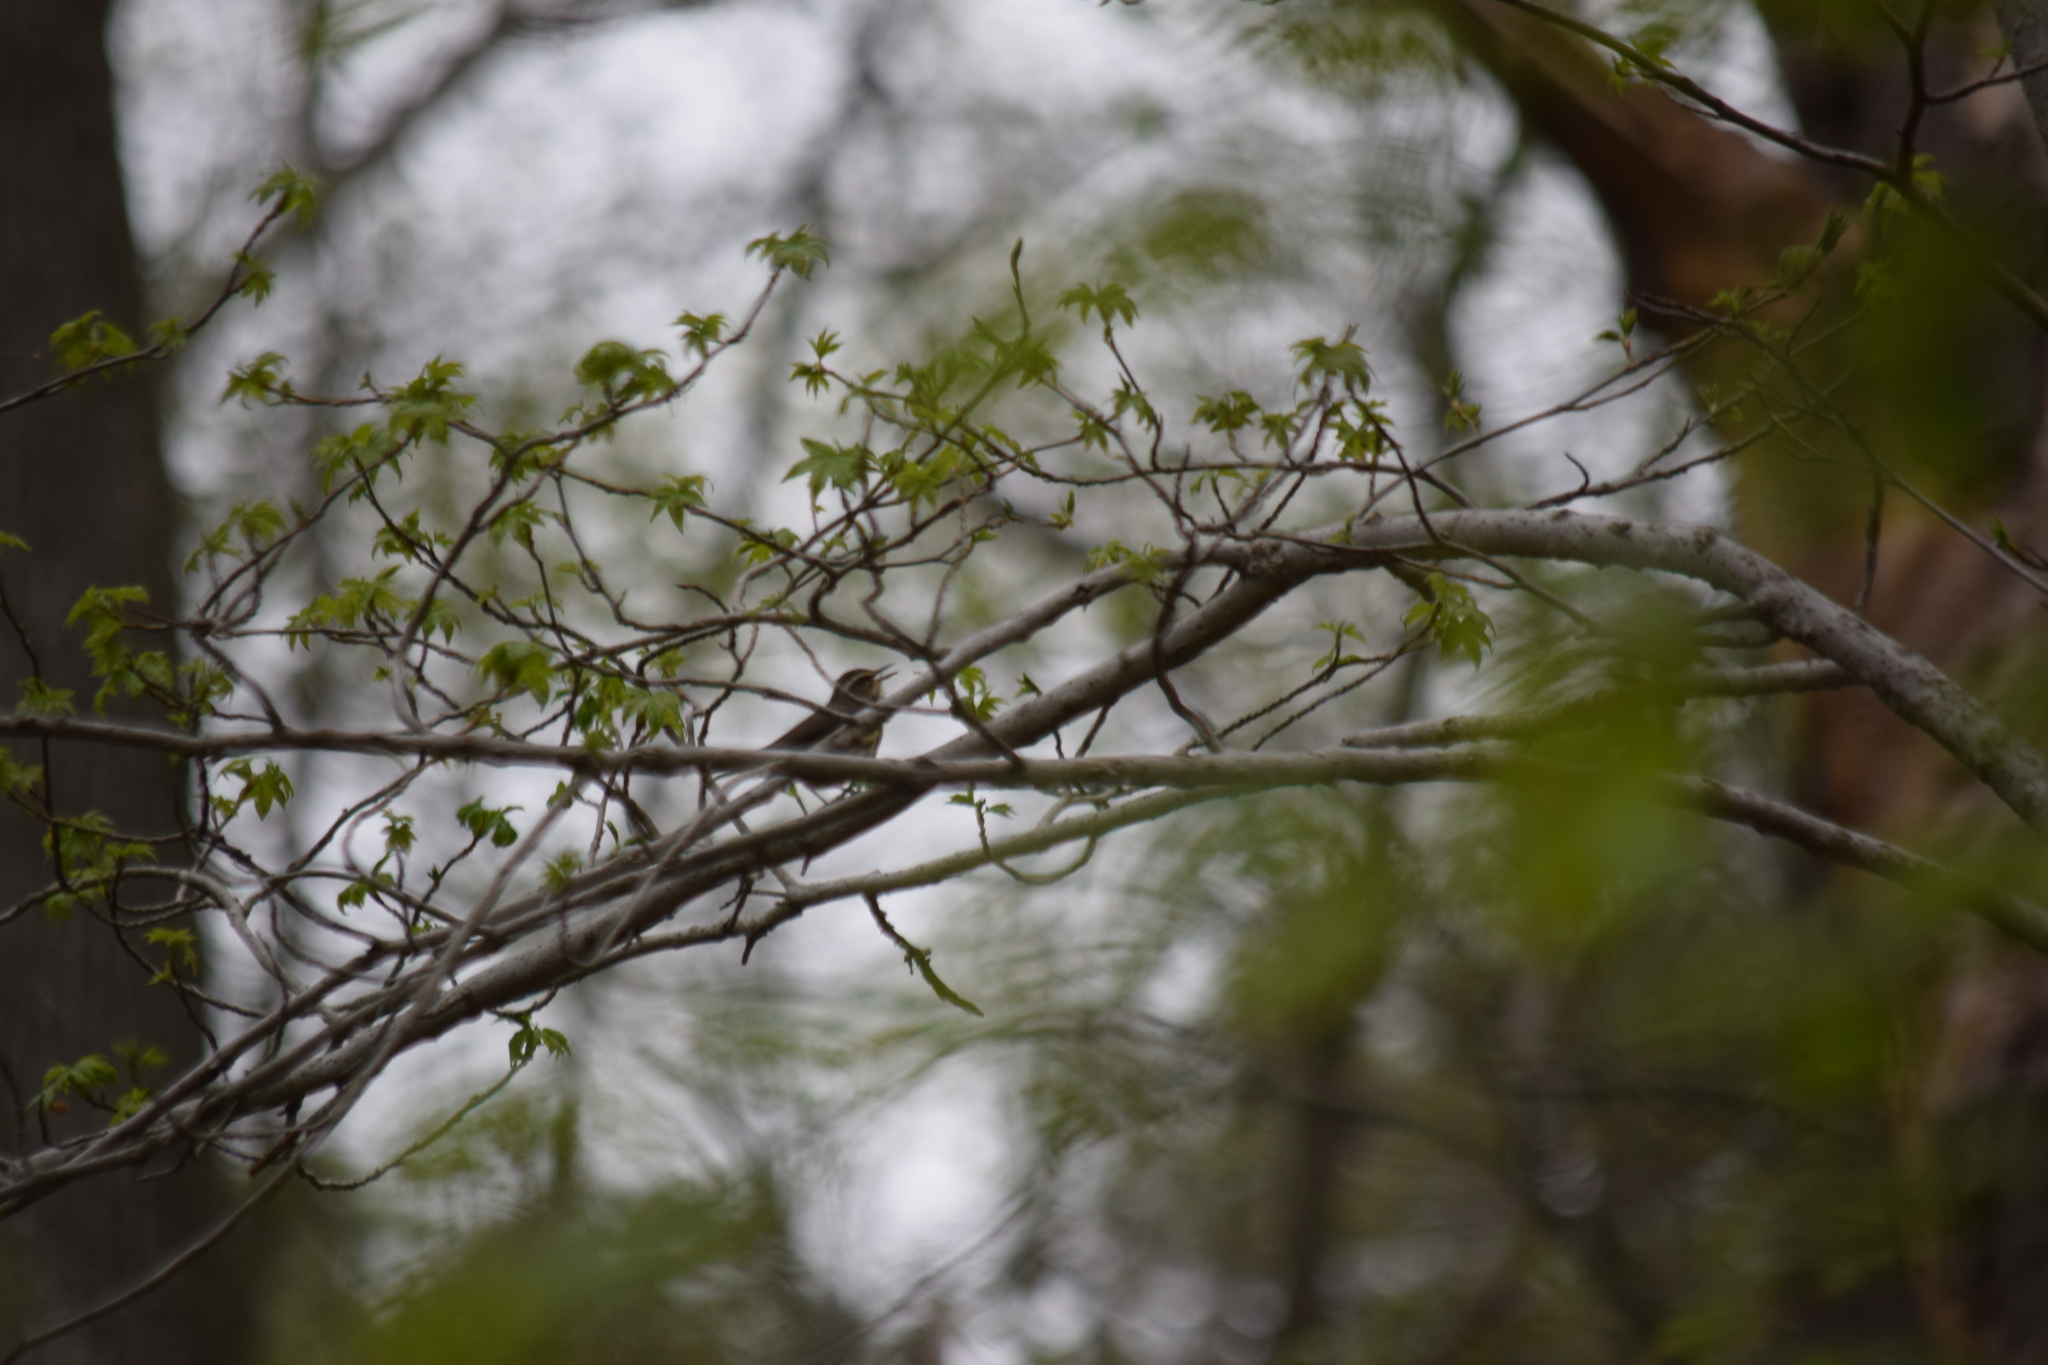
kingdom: Animalia
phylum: Chordata
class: Aves
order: Passeriformes
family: Parulidae
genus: Parkesia
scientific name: Parkesia motacilla
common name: Louisiana waterthrush
